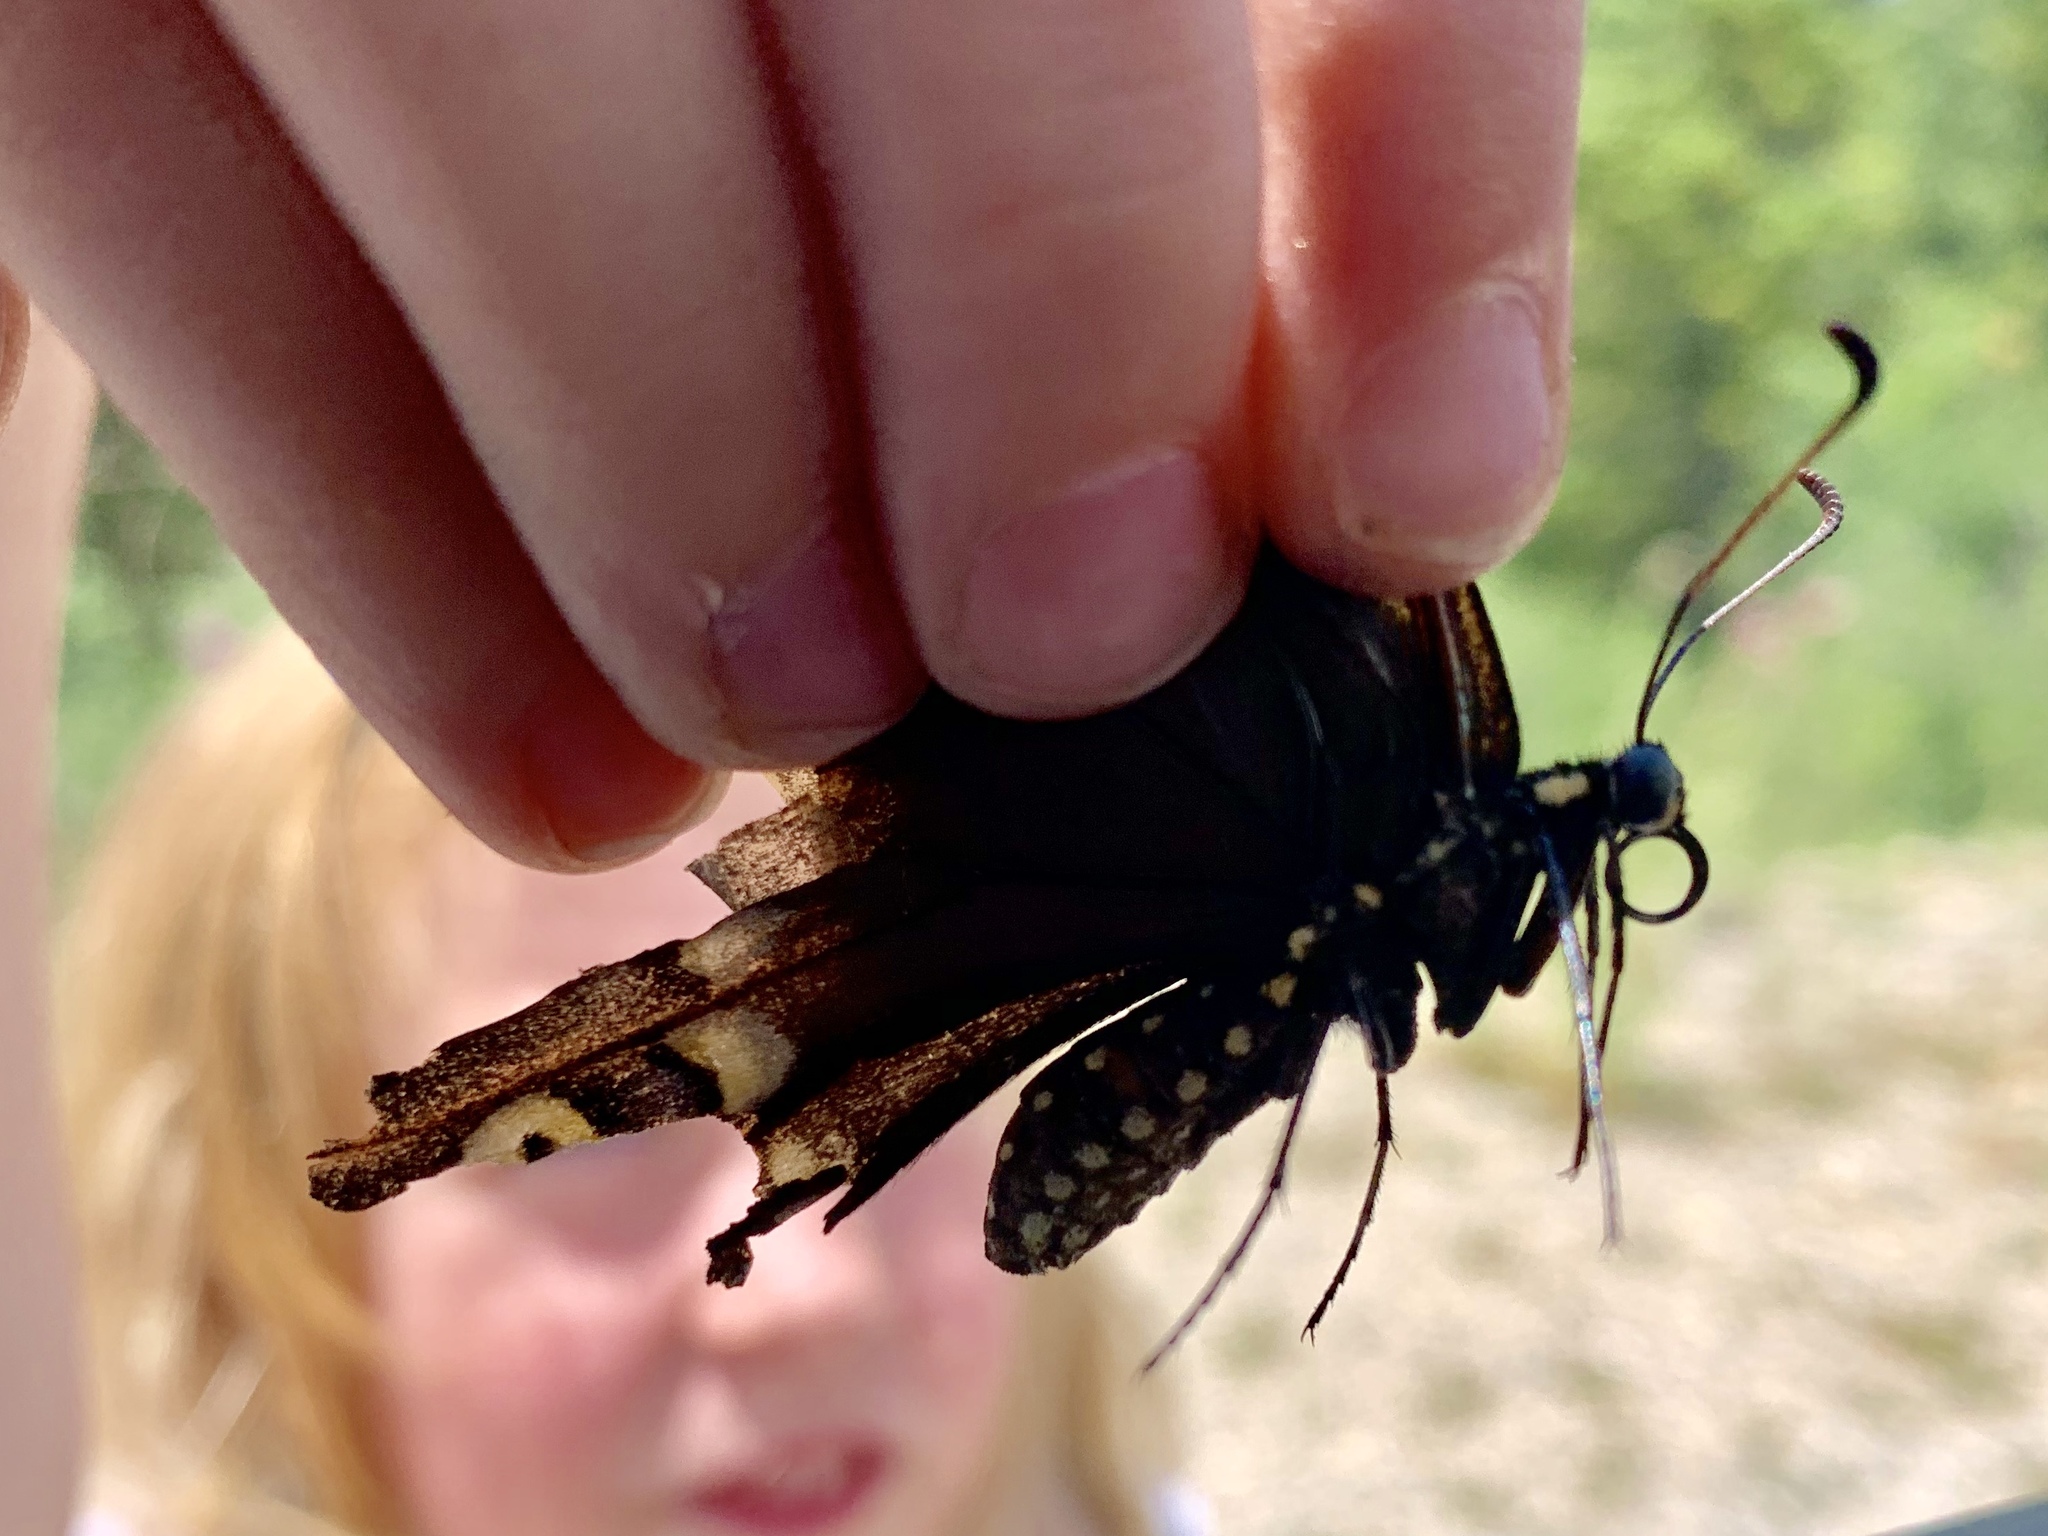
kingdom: Animalia
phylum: Arthropoda
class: Insecta
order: Lepidoptera
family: Papilionidae
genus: Papilio
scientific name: Papilio polyxenes
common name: Black swallowtail
